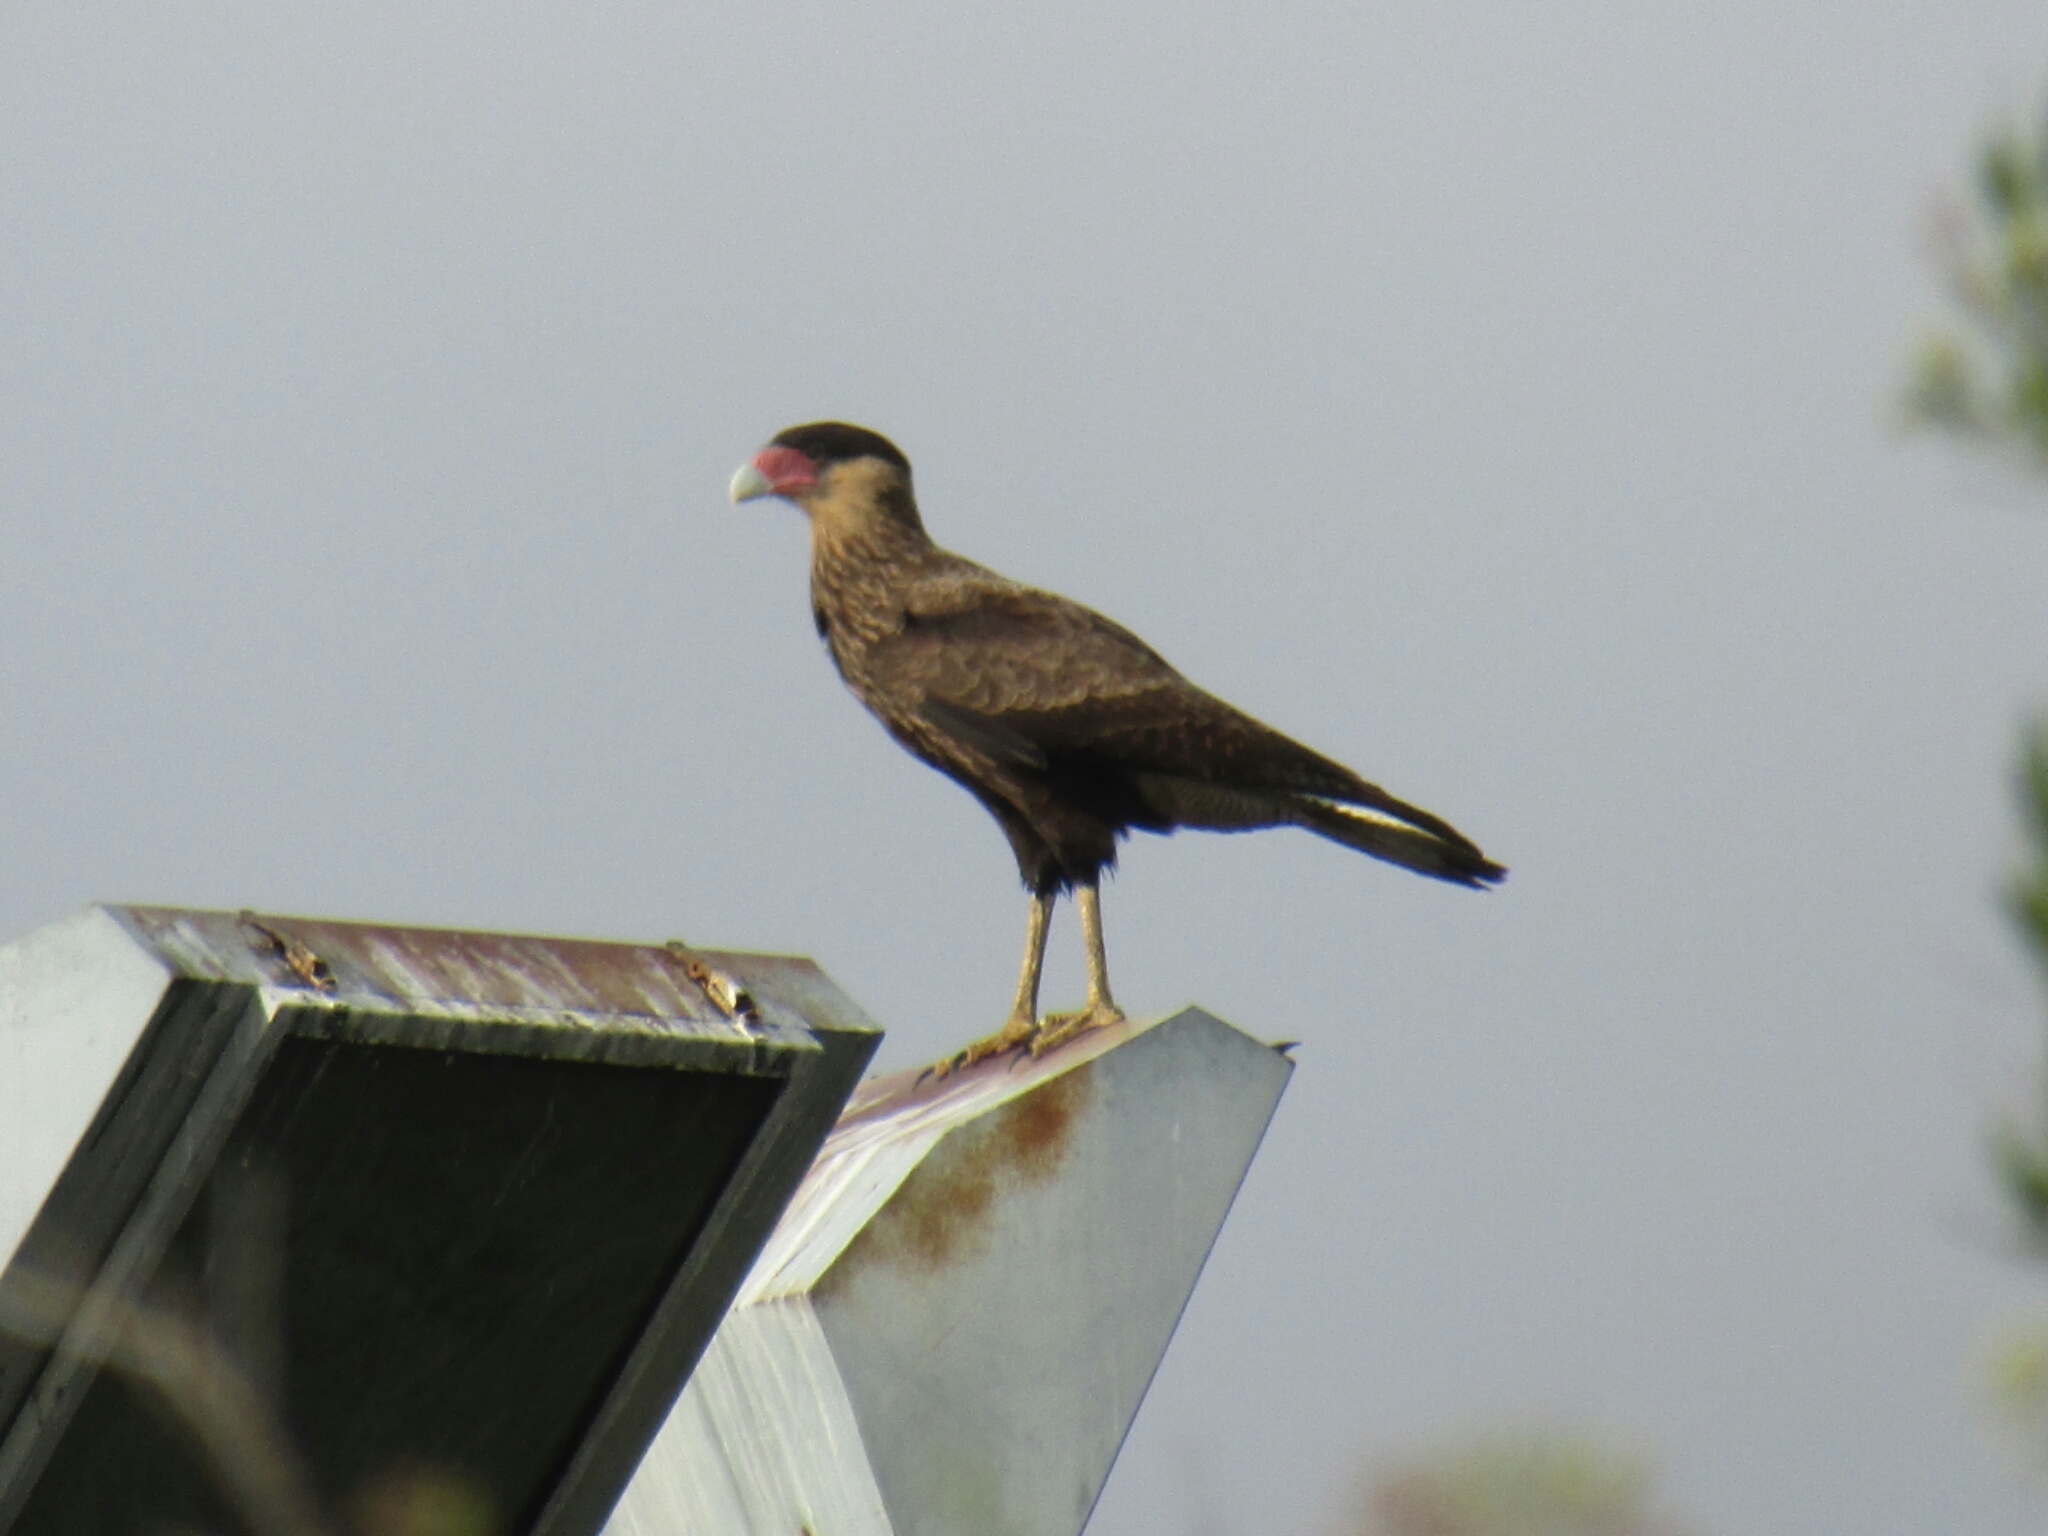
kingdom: Animalia
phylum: Chordata
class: Aves
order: Falconiformes
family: Falconidae
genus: Caracara
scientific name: Caracara plancus
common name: Southern caracara
